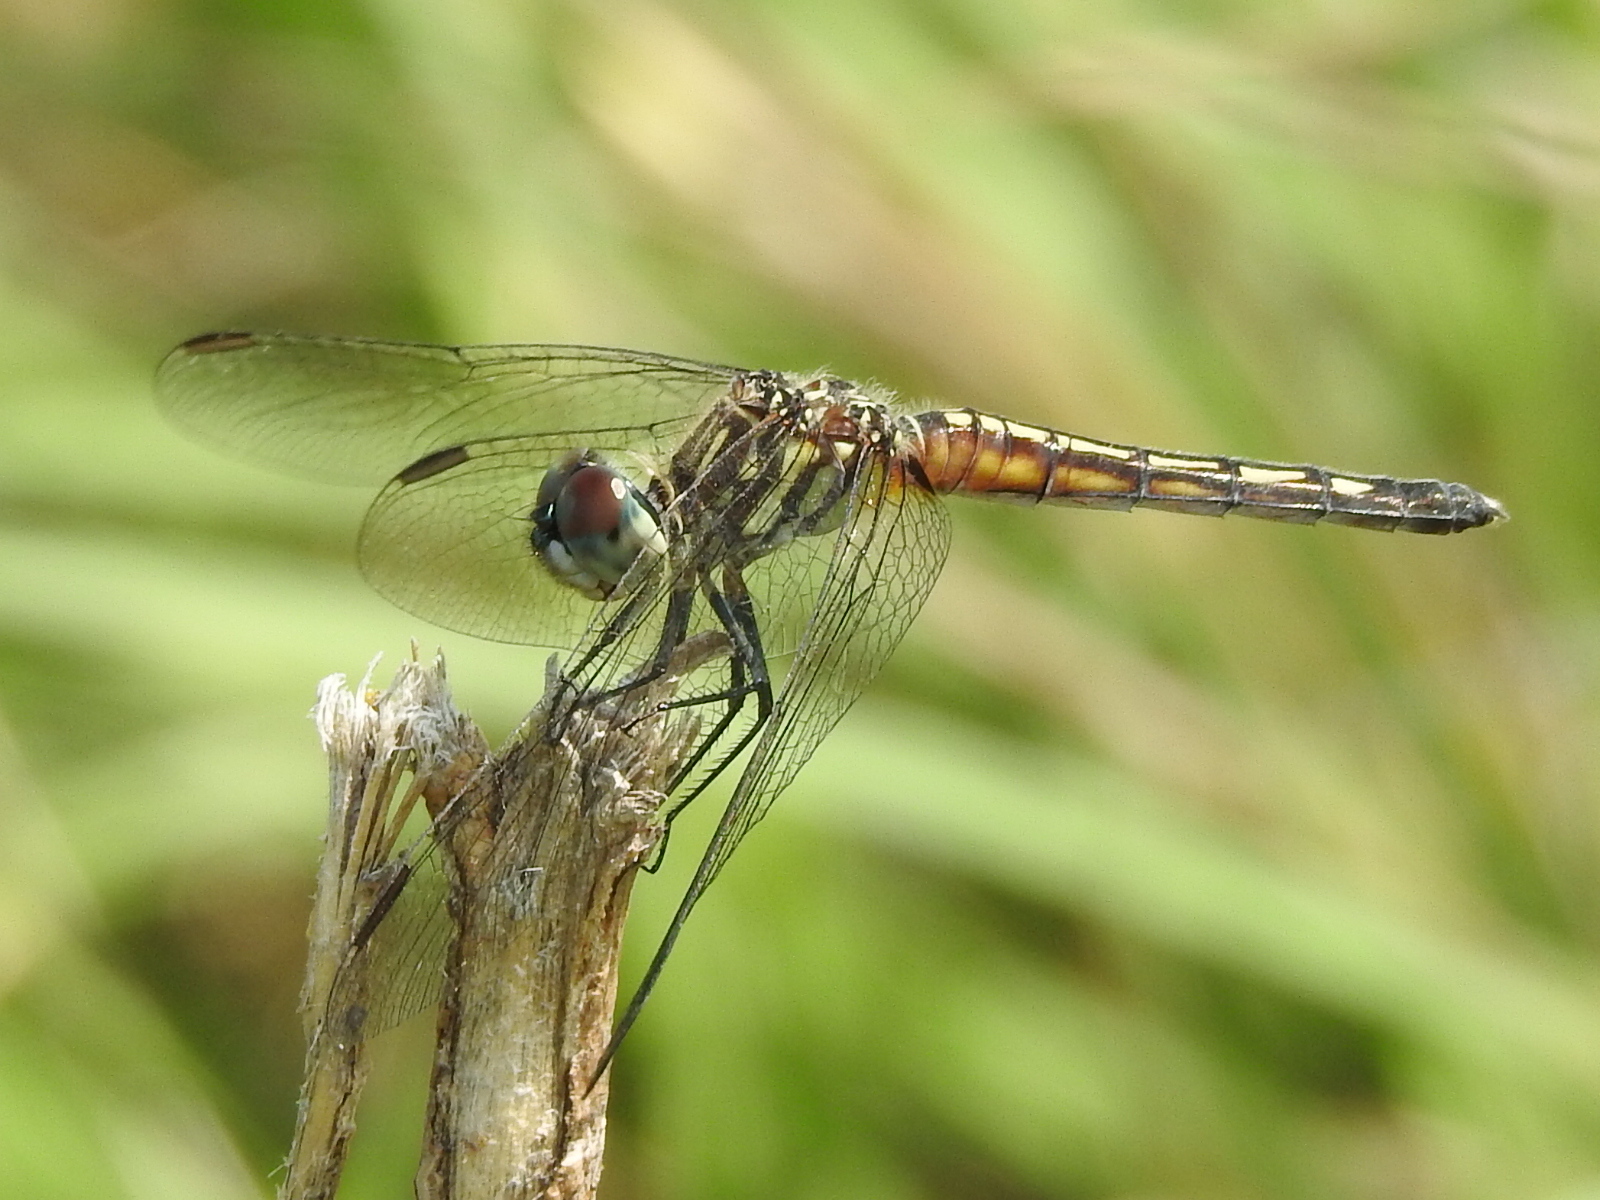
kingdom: Animalia
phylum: Arthropoda
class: Insecta
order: Odonata
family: Libellulidae
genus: Pachydiplax
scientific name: Pachydiplax longipennis
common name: Blue dasher
